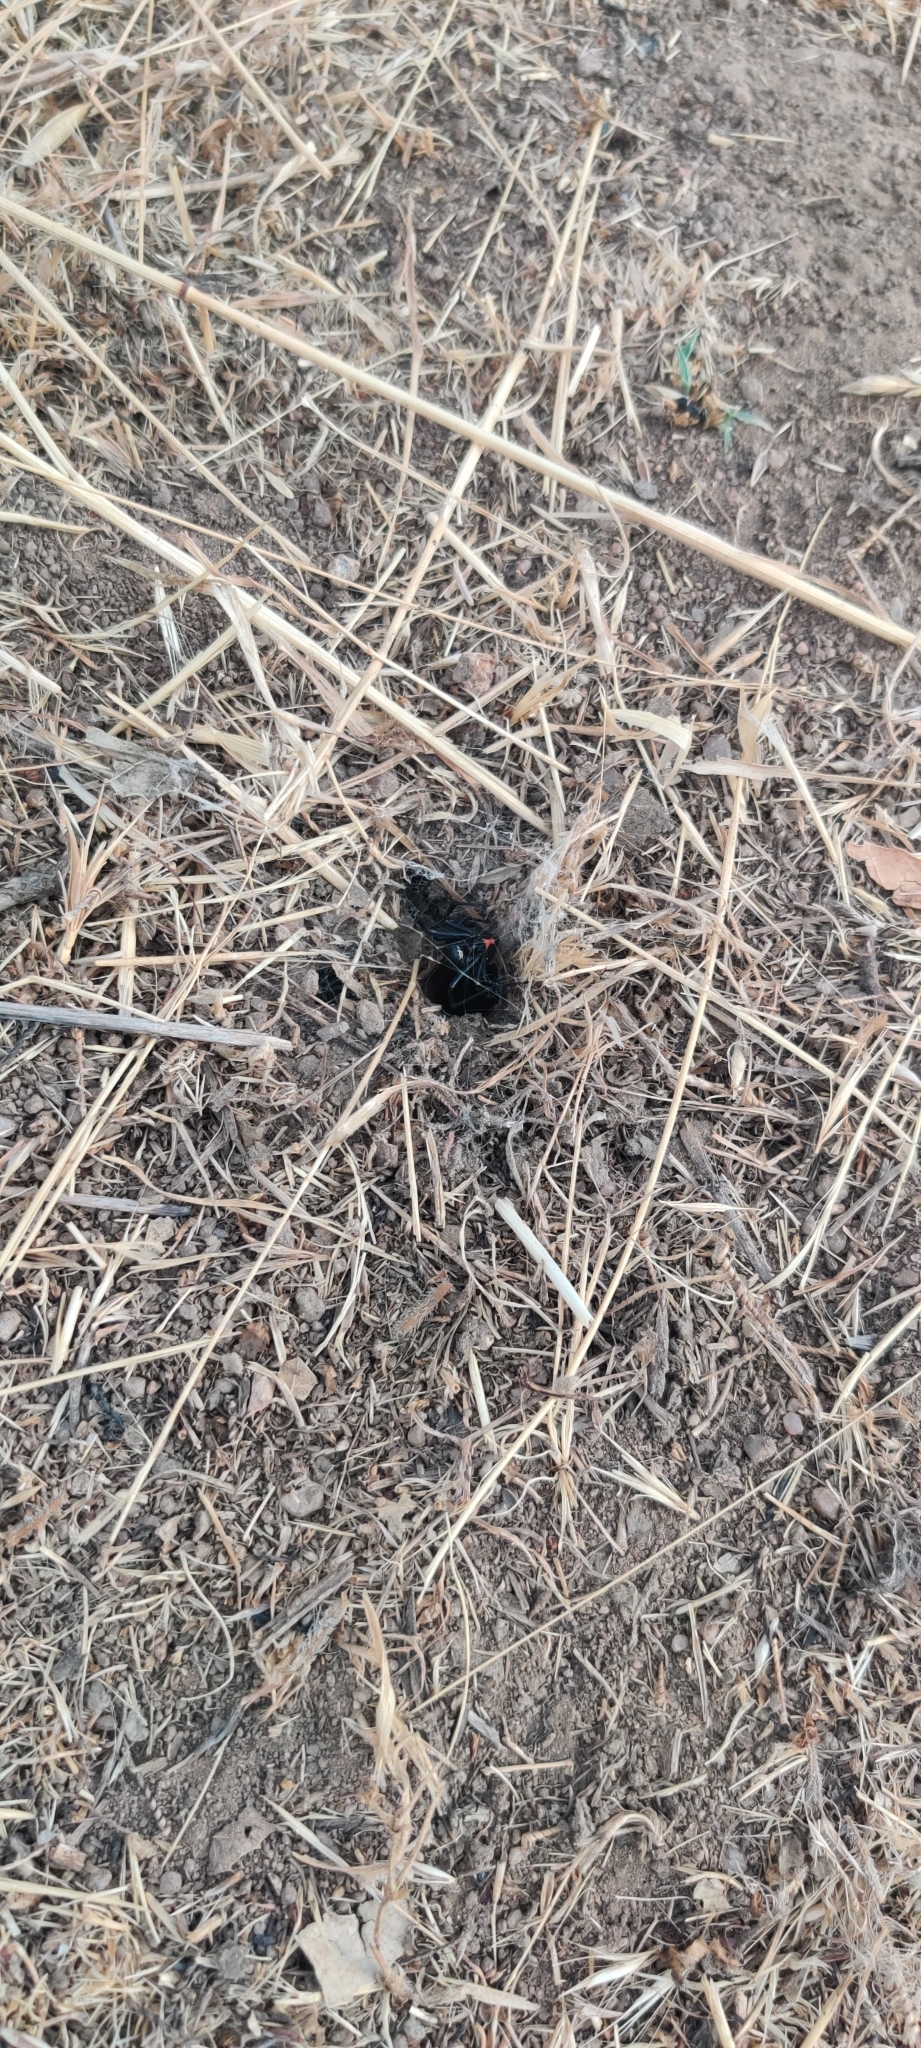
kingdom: Animalia
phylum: Arthropoda
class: Arachnida
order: Araneae
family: Theridiidae
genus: Latrodectus
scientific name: Latrodectus hesperus
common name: Western black widow
